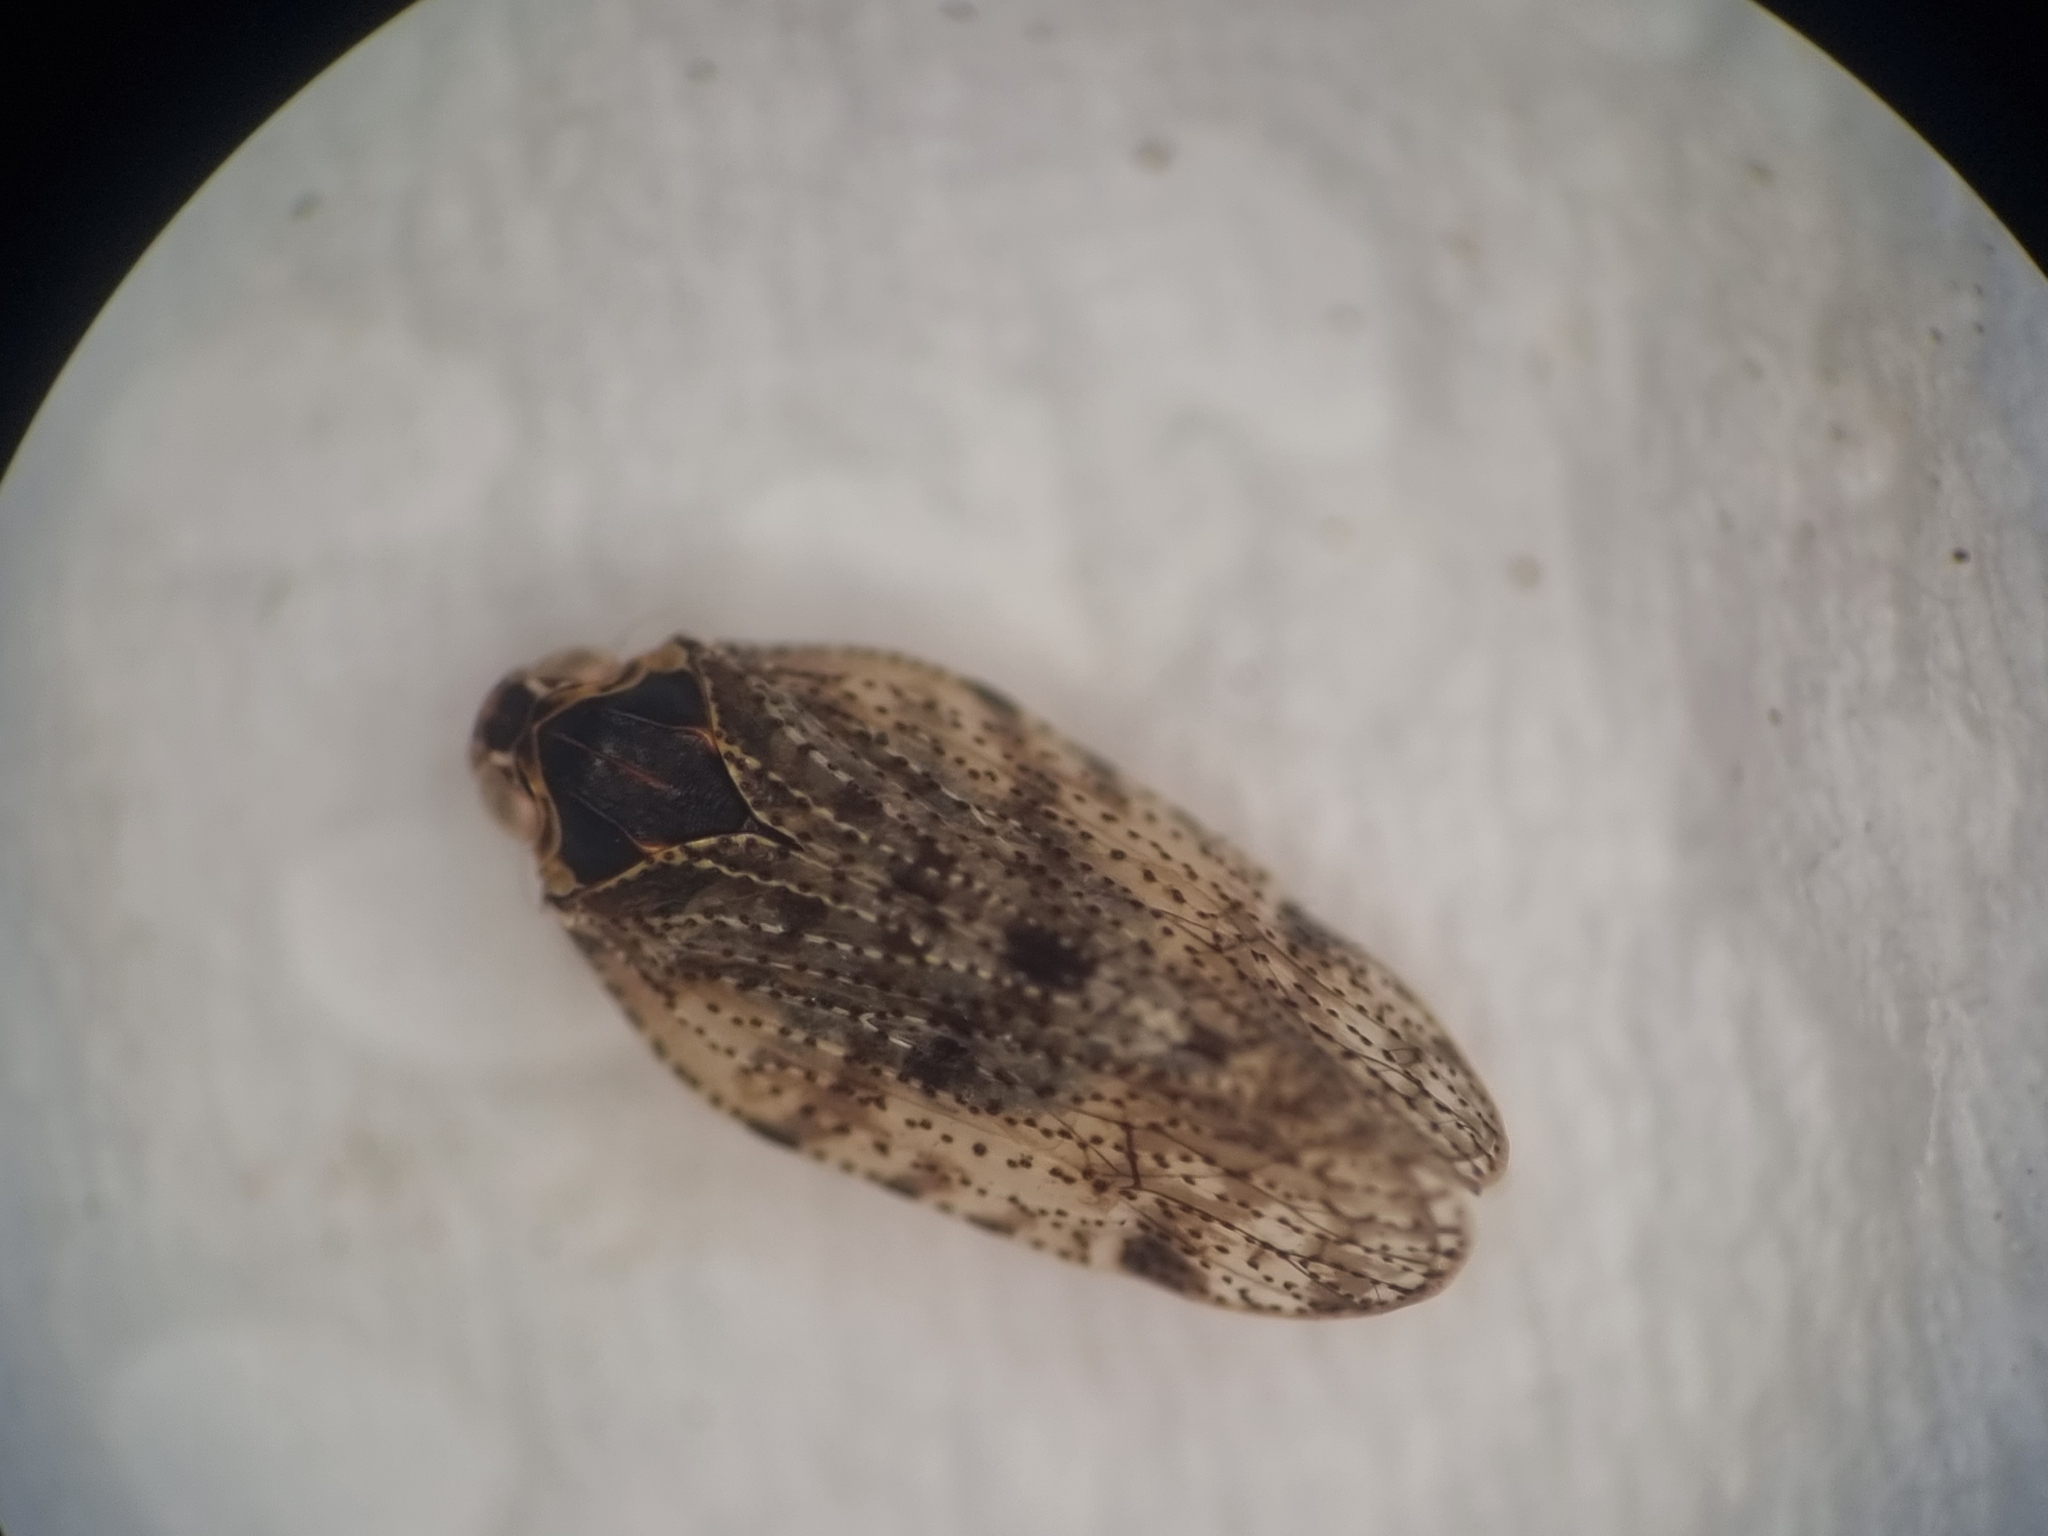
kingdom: Animalia
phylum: Arthropoda
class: Insecta
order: Hemiptera
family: Cixiidae
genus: Tachycixius
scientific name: Tachycixius pilosus
